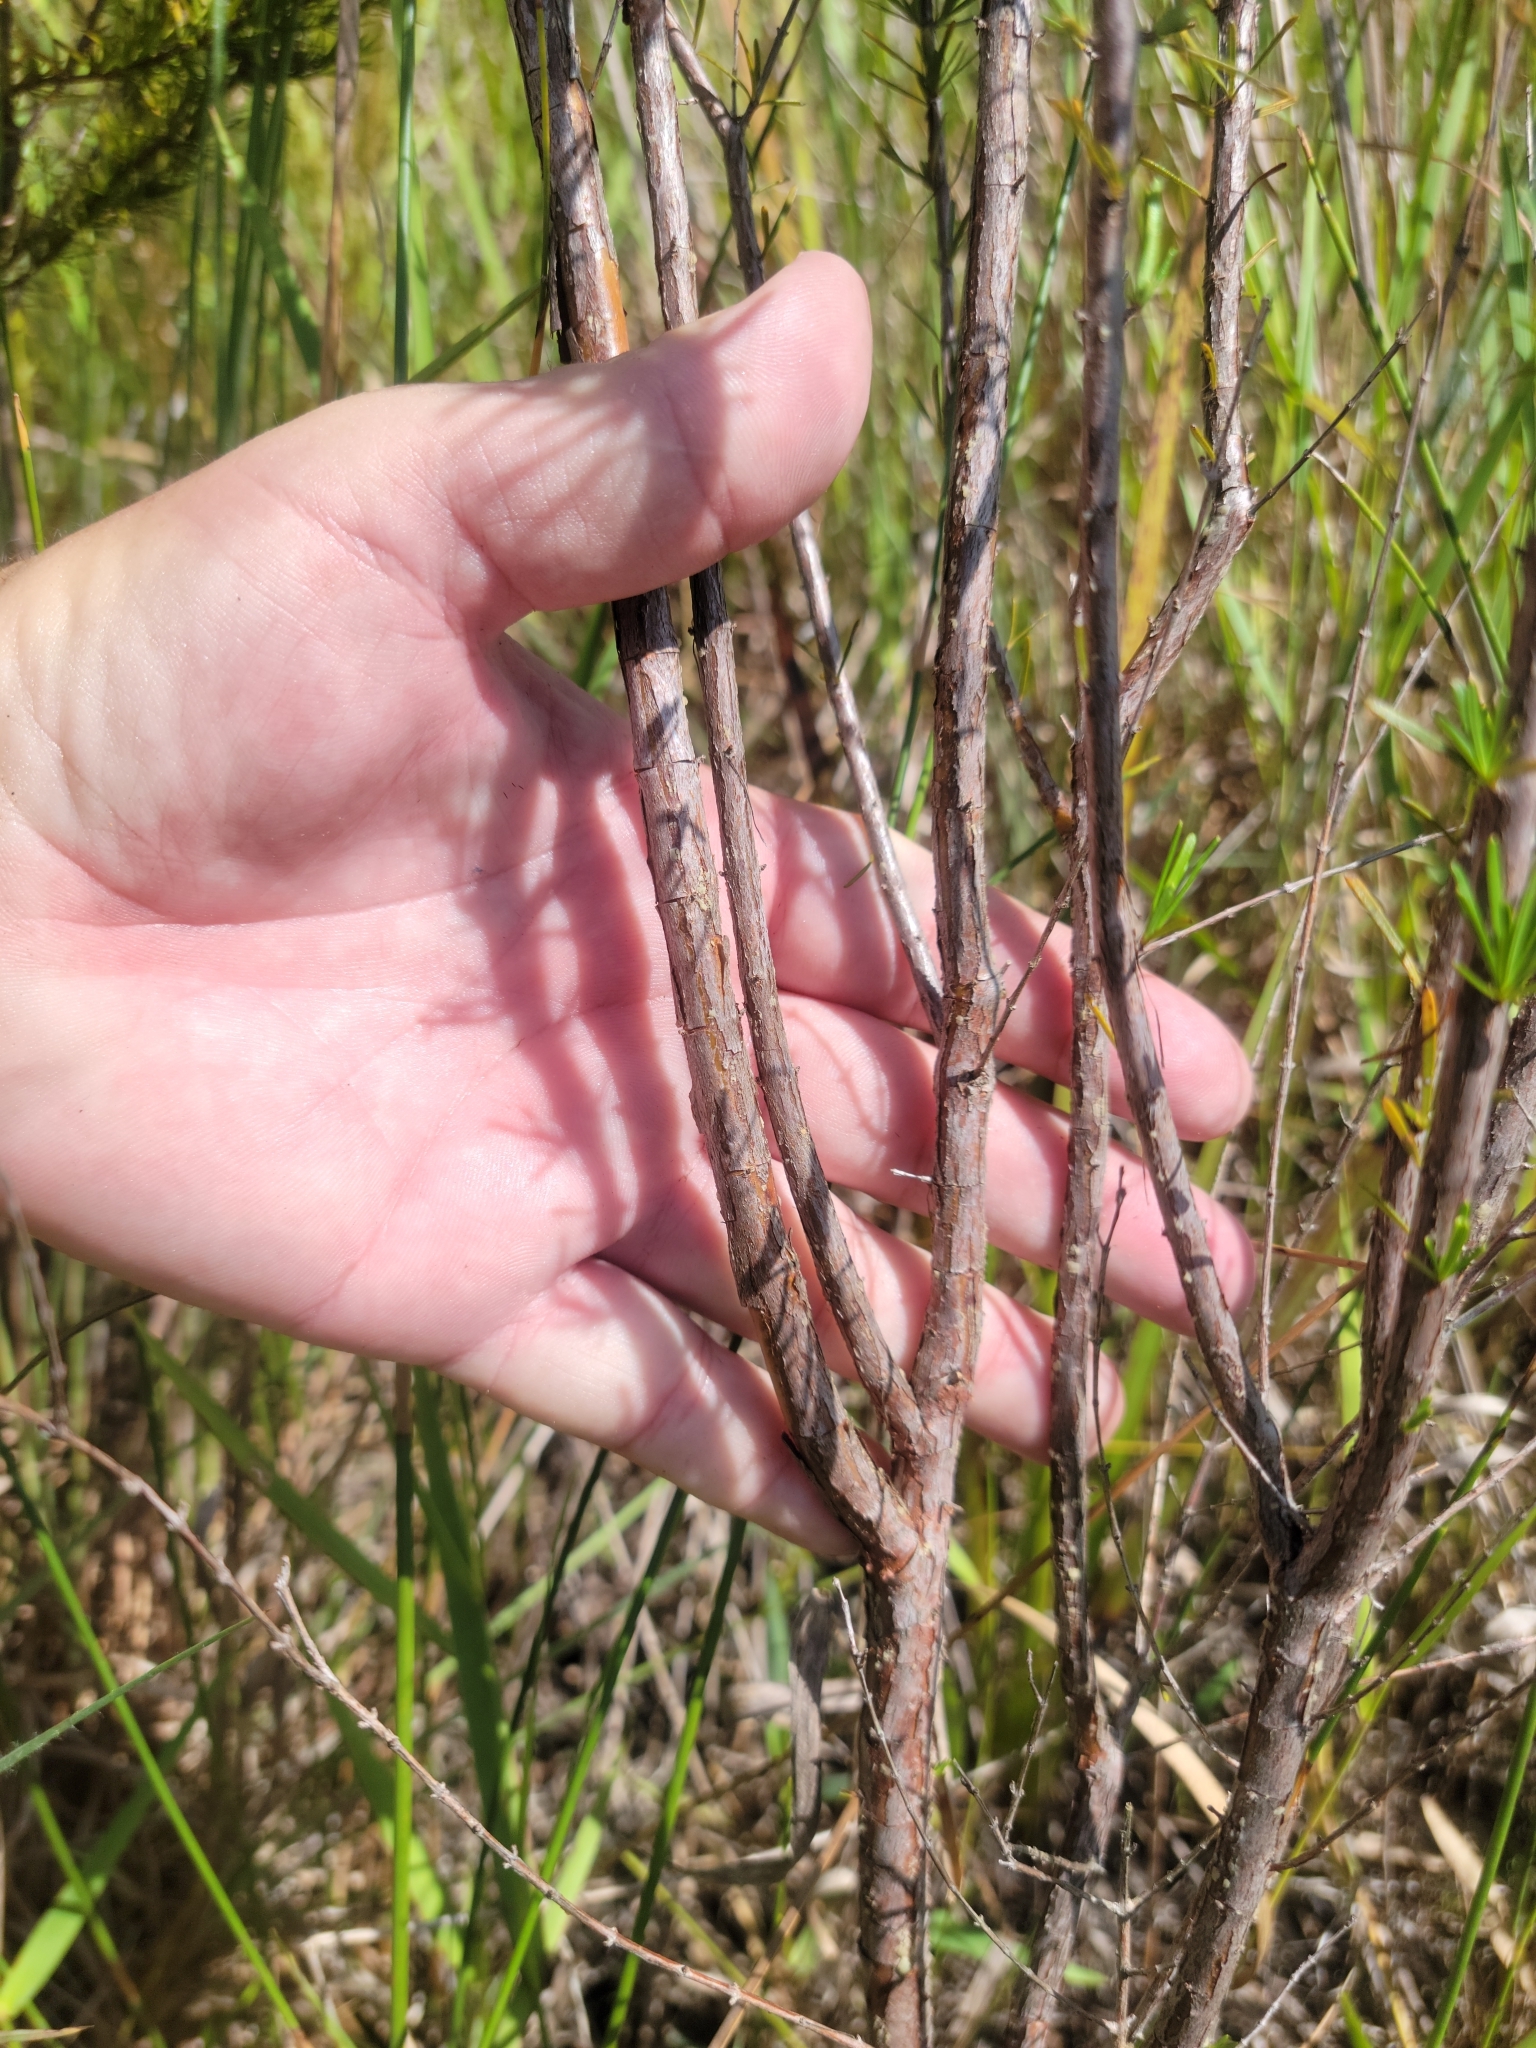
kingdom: Plantae
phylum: Tracheophyta
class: Magnoliopsida
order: Malpighiales
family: Hypericaceae
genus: Hypericum
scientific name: Hypericum fasciculatum
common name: Peelbark st. john's wort
